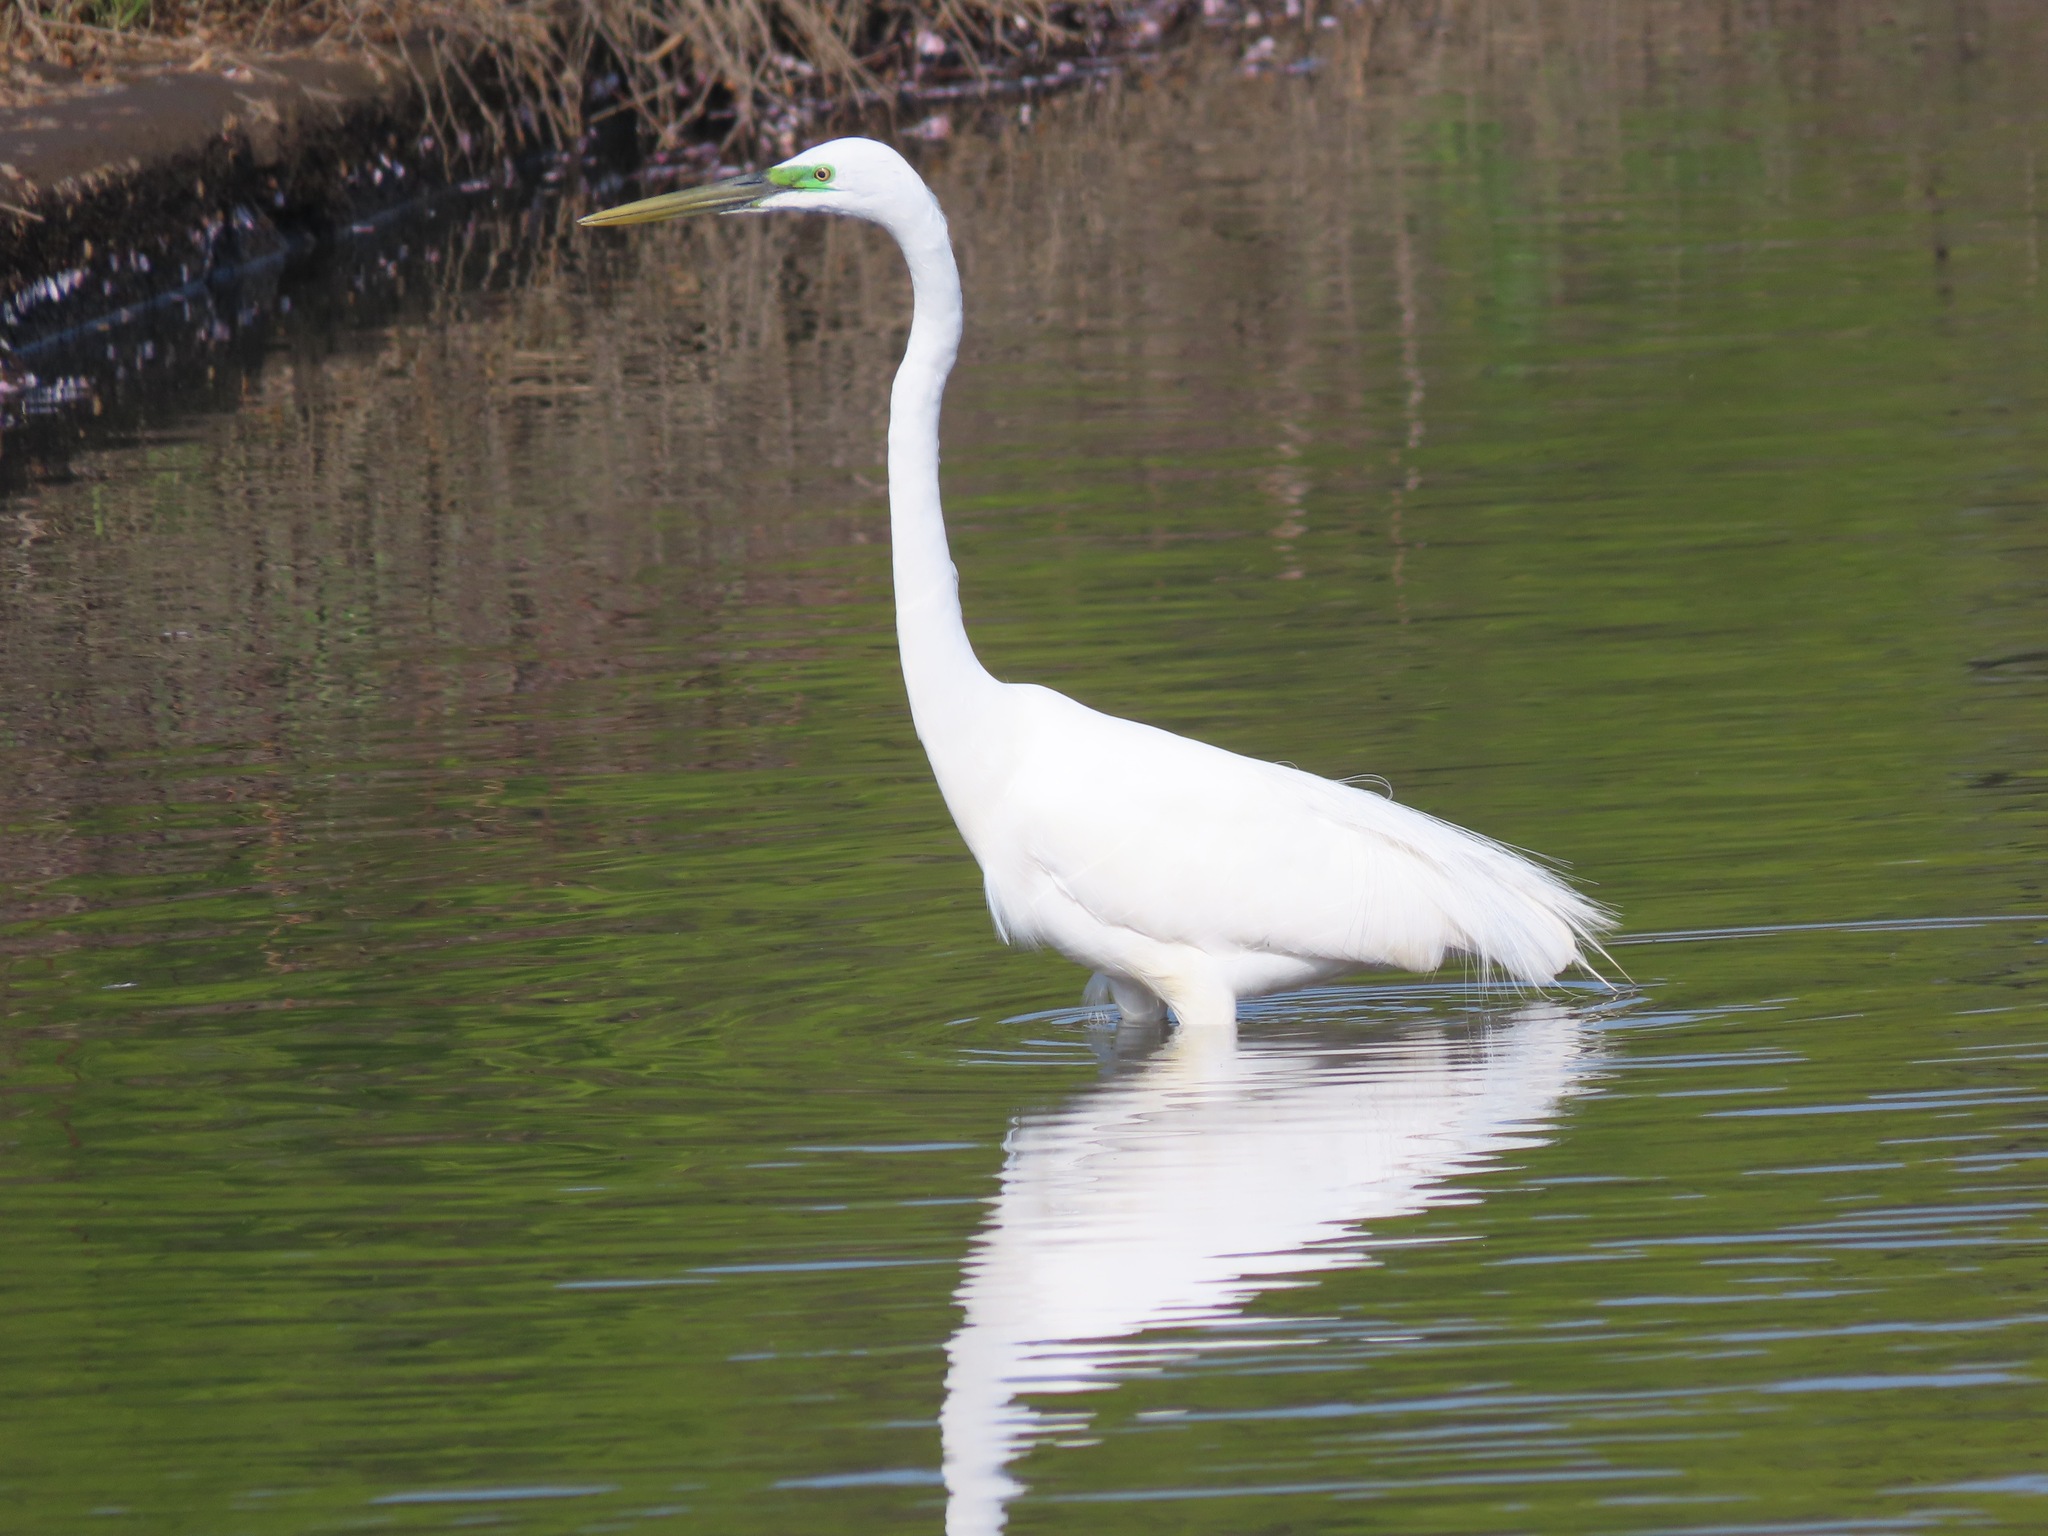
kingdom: Animalia
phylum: Chordata
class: Aves
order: Pelecaniformes
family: Ardeidae
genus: Ardea
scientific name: Ardea alba
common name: Great egret
